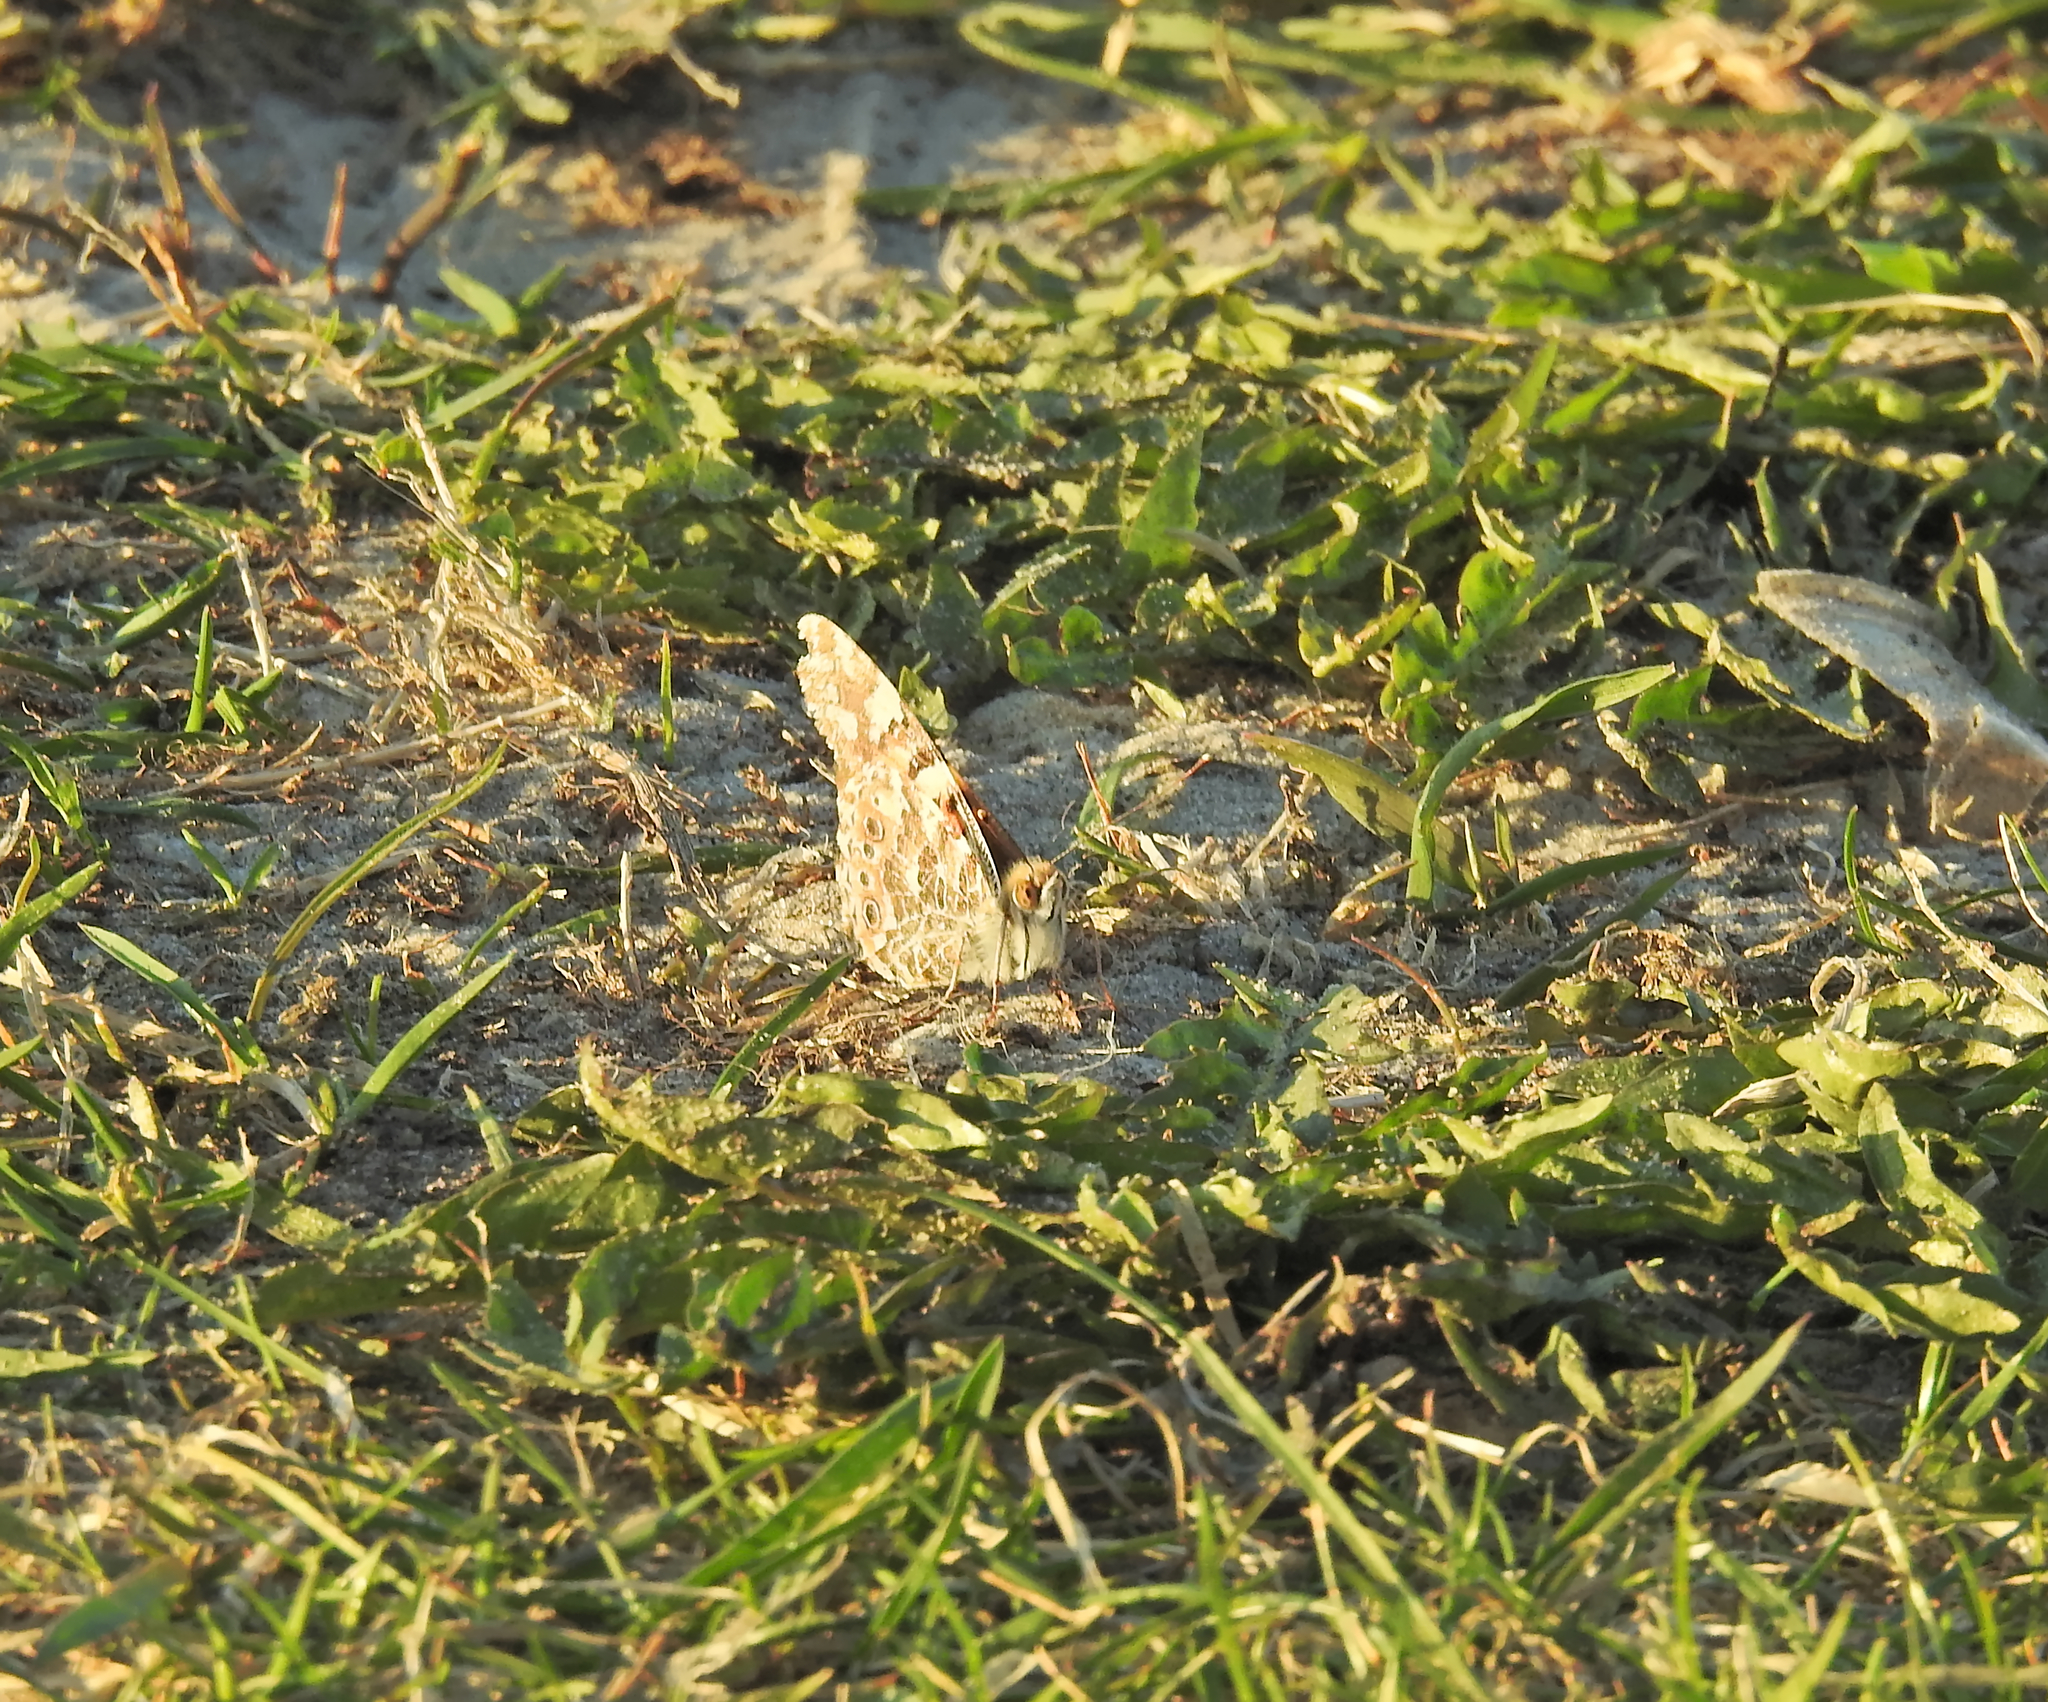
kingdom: Animalia
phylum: Arthropoda
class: Insecta
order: Lepidoptera
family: Nymphalidae
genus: Vanessa
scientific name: Vanessa cardui
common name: Painted lady
